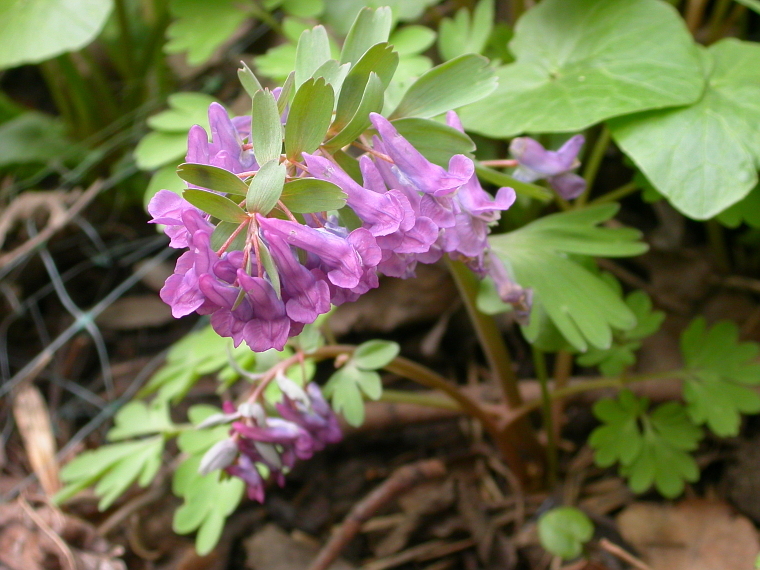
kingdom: Plantae
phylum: Tracheophyta
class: Magnoliopsida
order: Ranunculales
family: Papaveraceae
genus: Corydalis
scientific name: Corydalis solida
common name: Bird-in-a-bush
